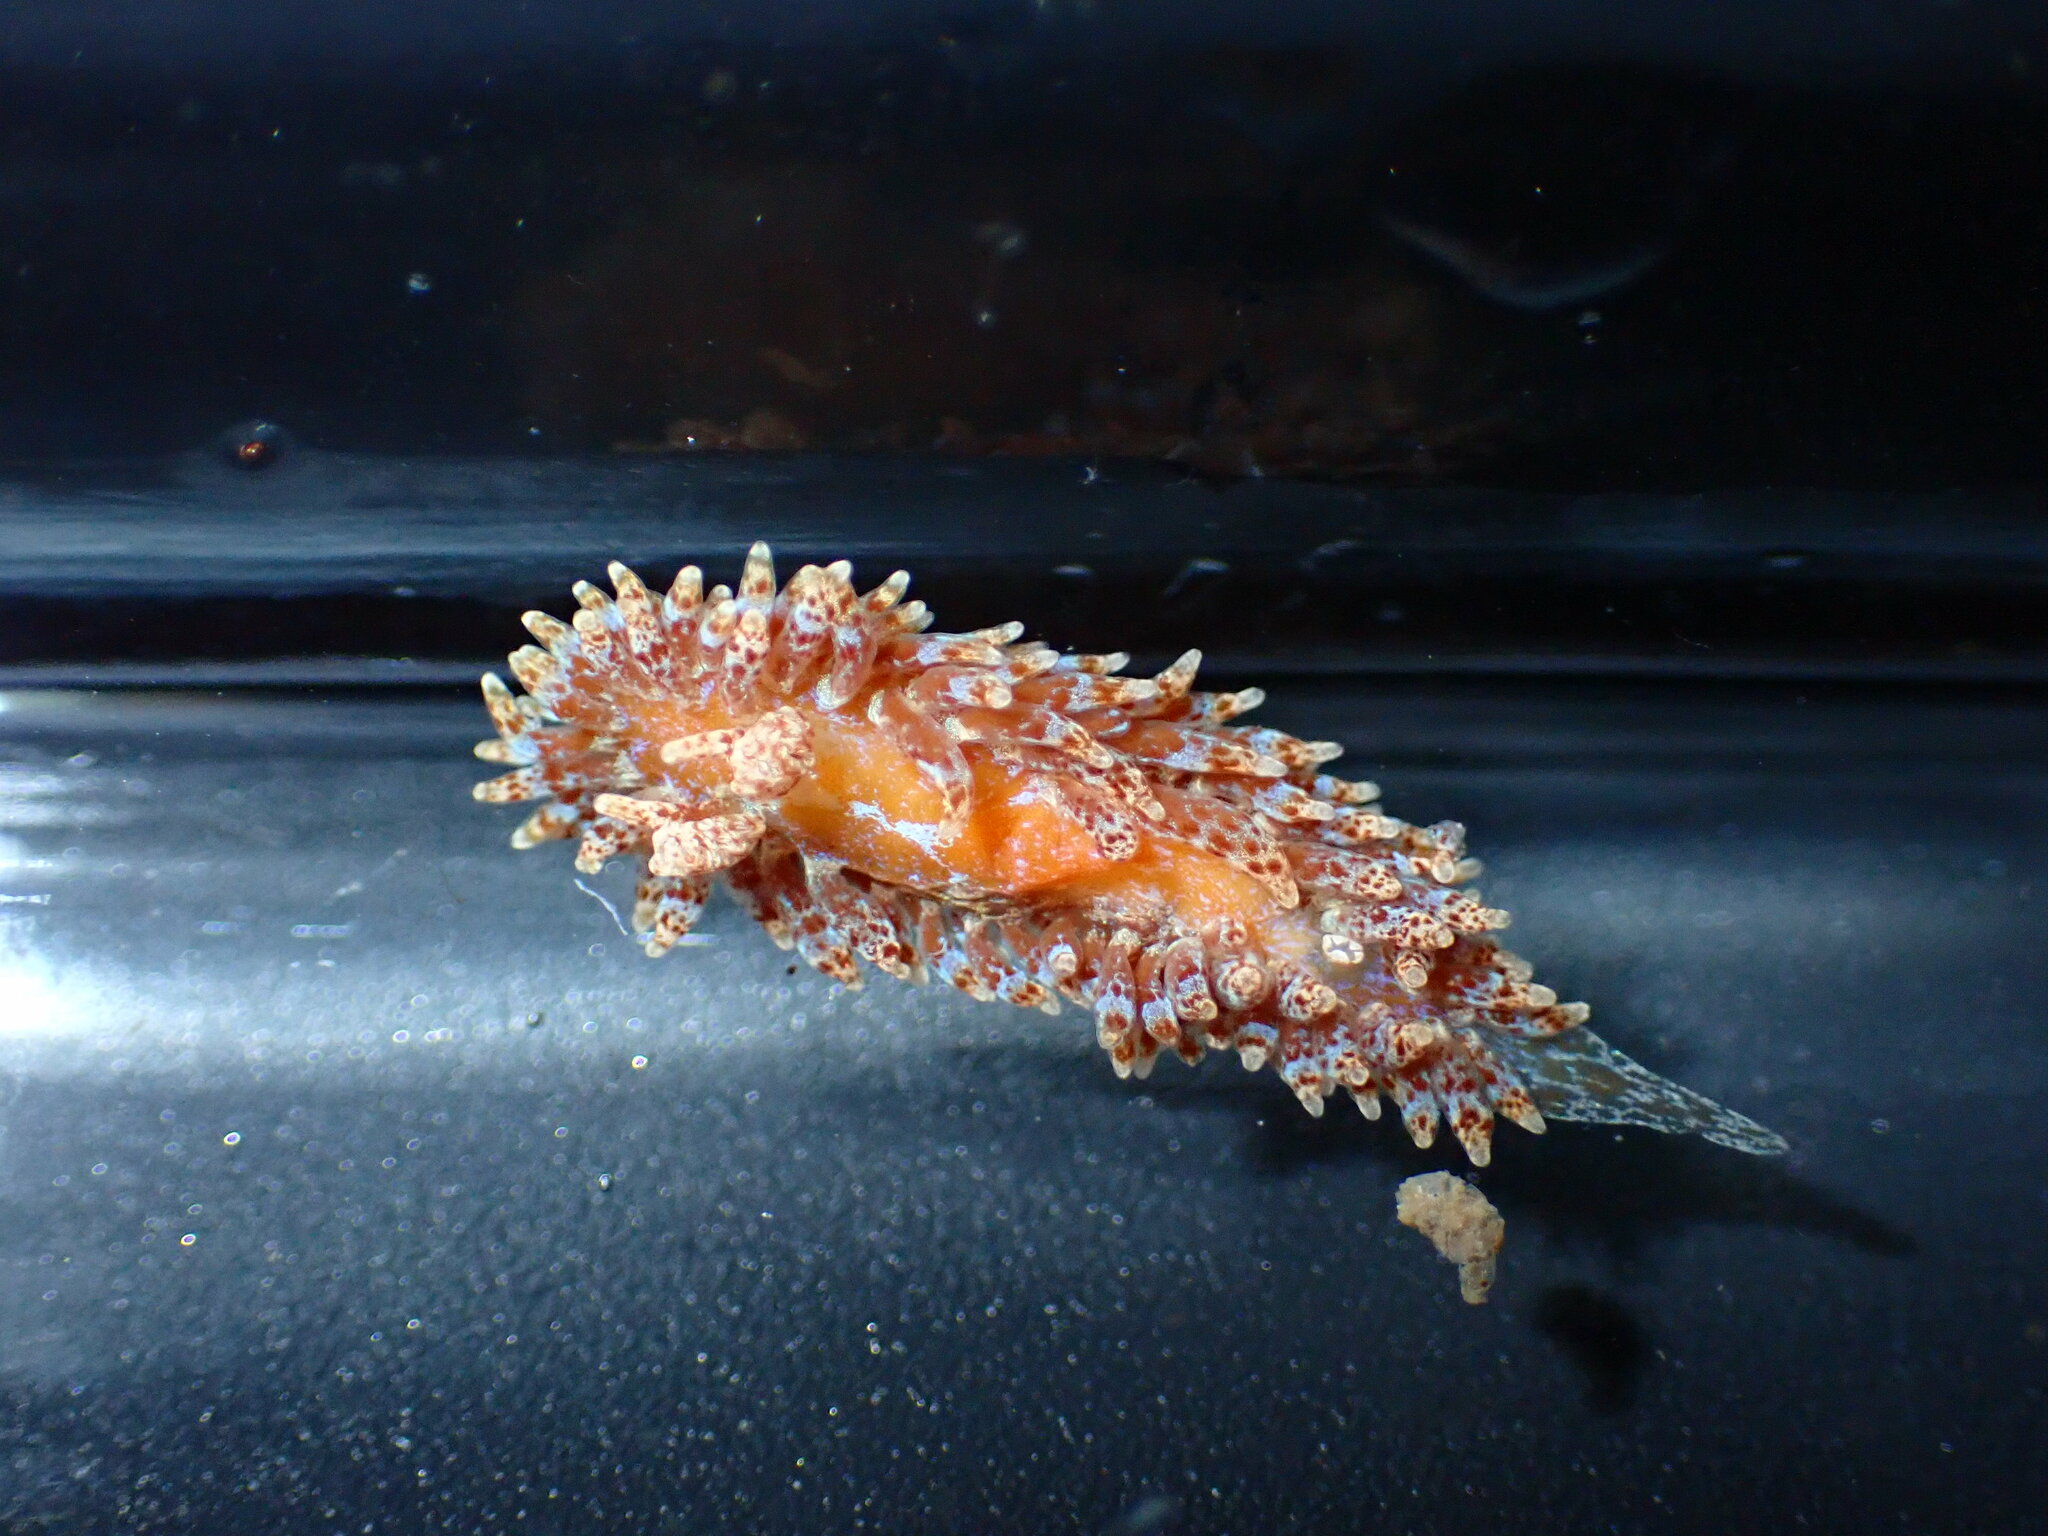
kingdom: Animalia
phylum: Mollusca
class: Gastropoda
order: Nudibranchia
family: Proctonotidae
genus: Caldukia
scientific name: Caldukia affinis
